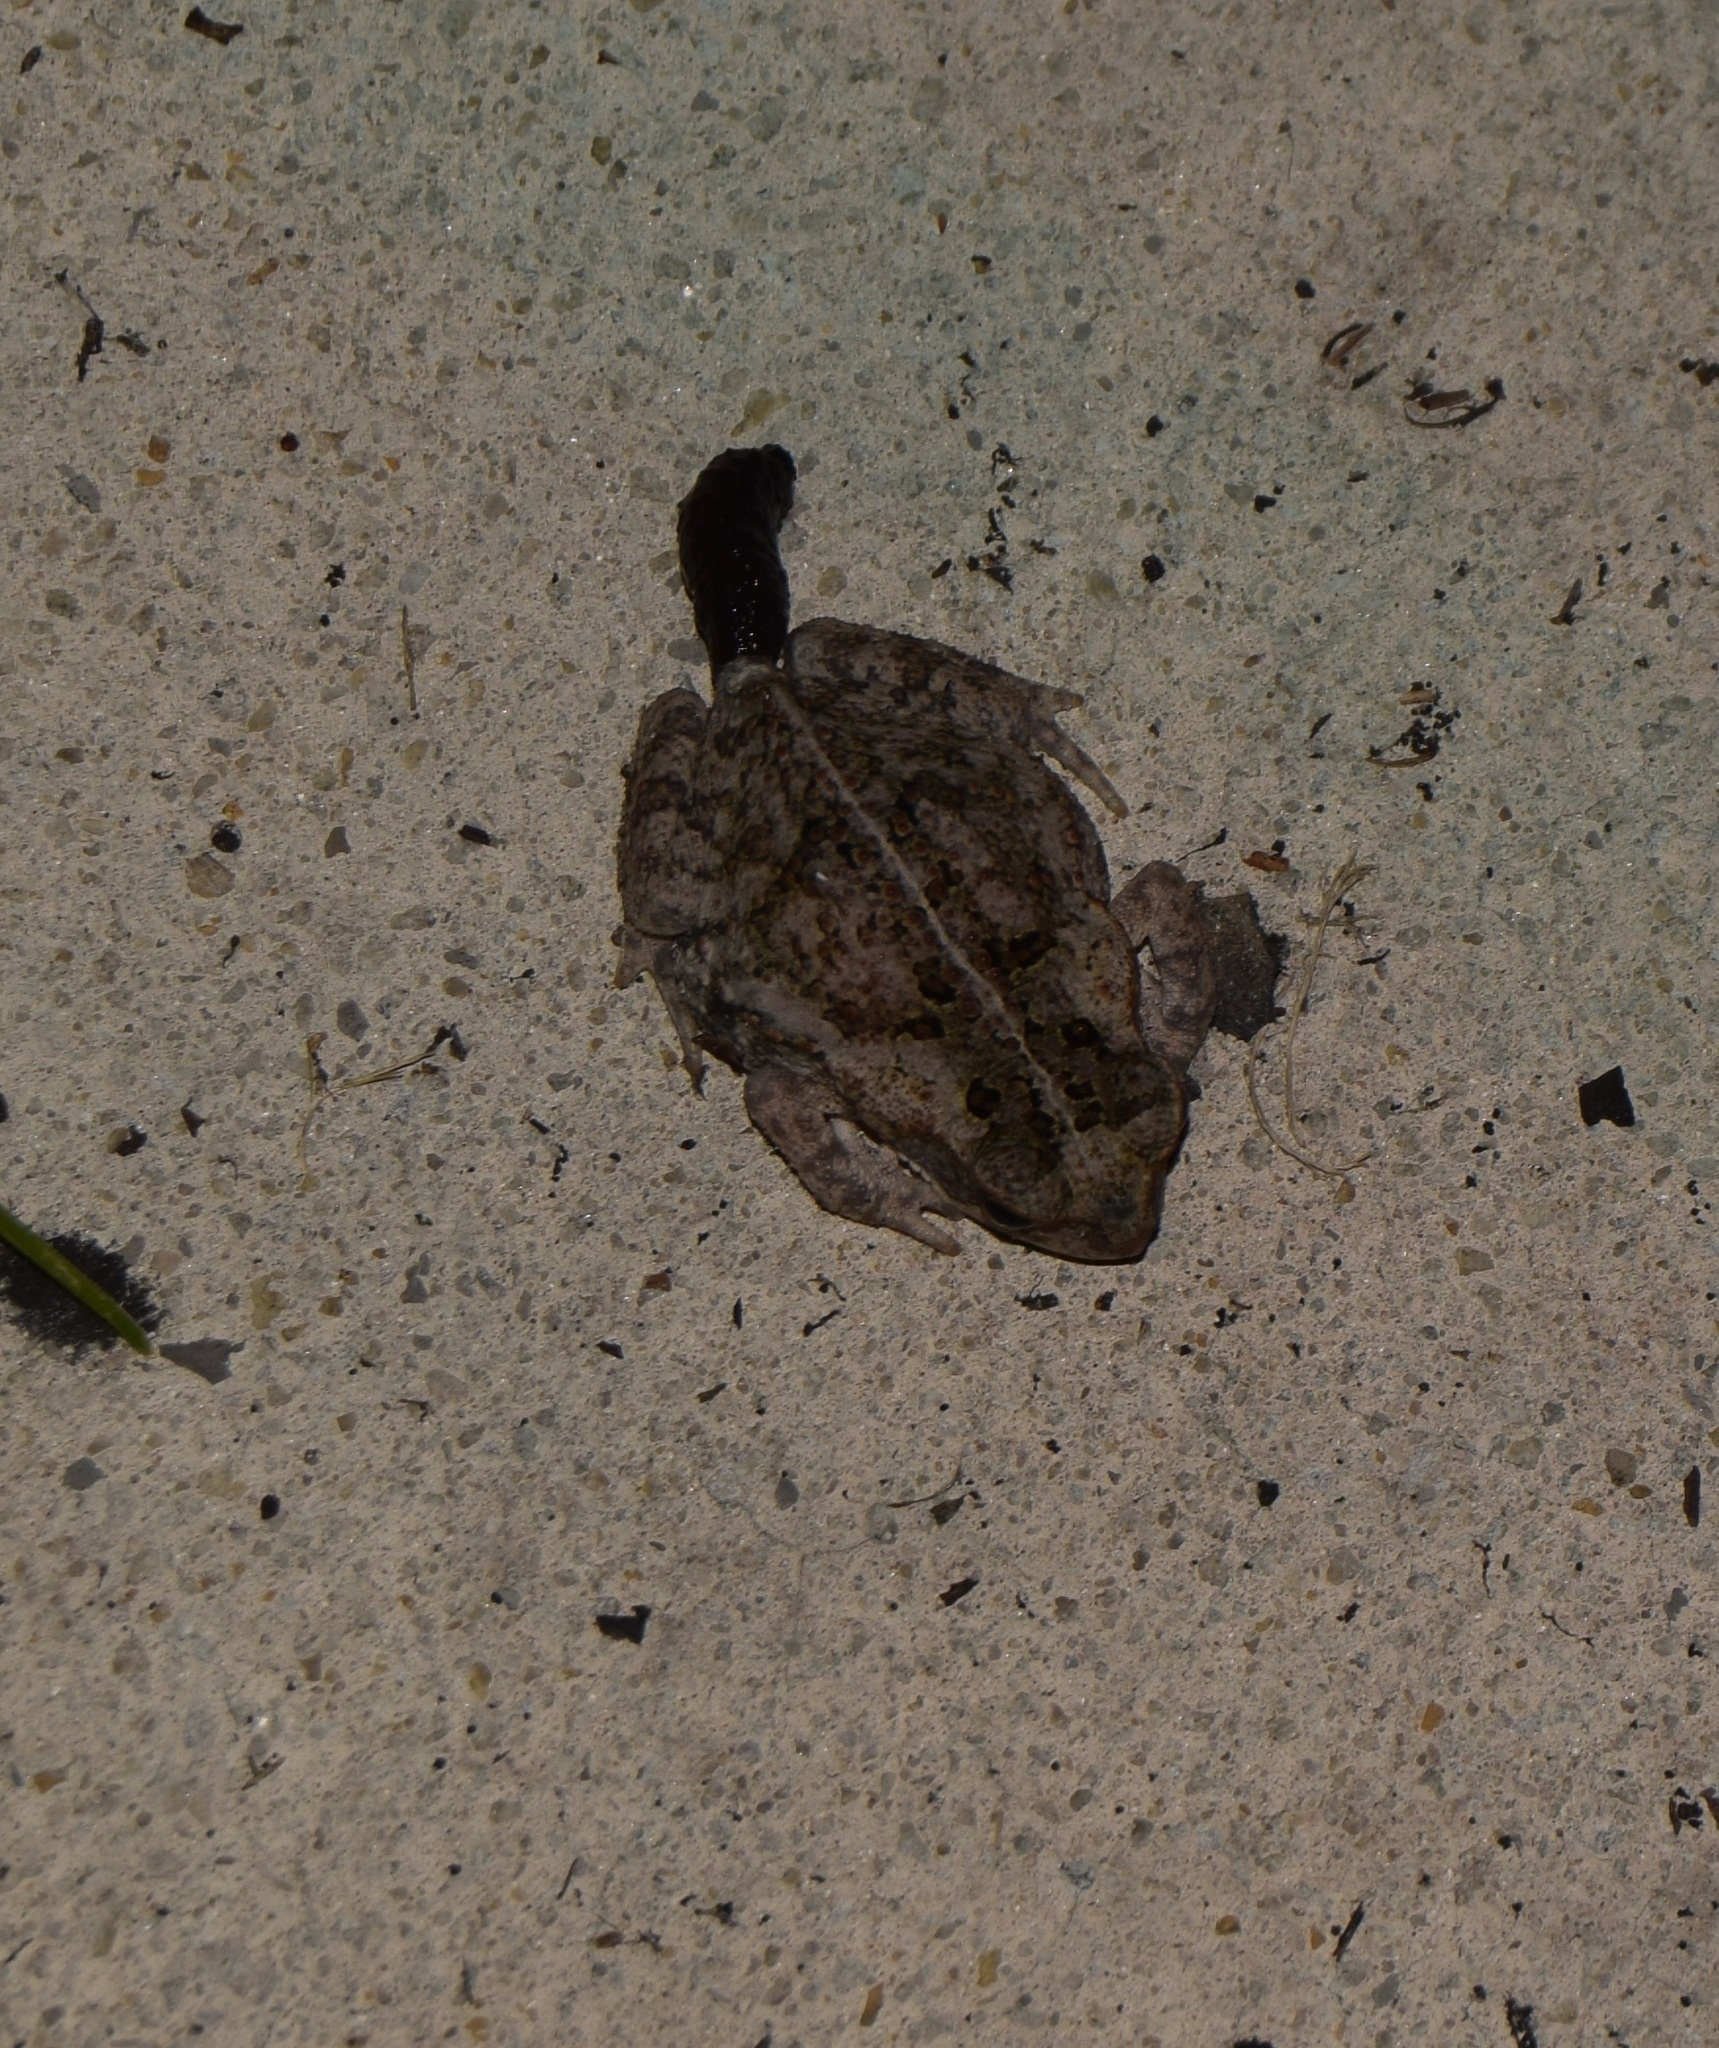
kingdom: Animalia
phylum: Chordata
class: Amphibia
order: Anura
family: Bufonidae
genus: Rhinella
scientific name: Rhinella marina
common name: Cane toad
